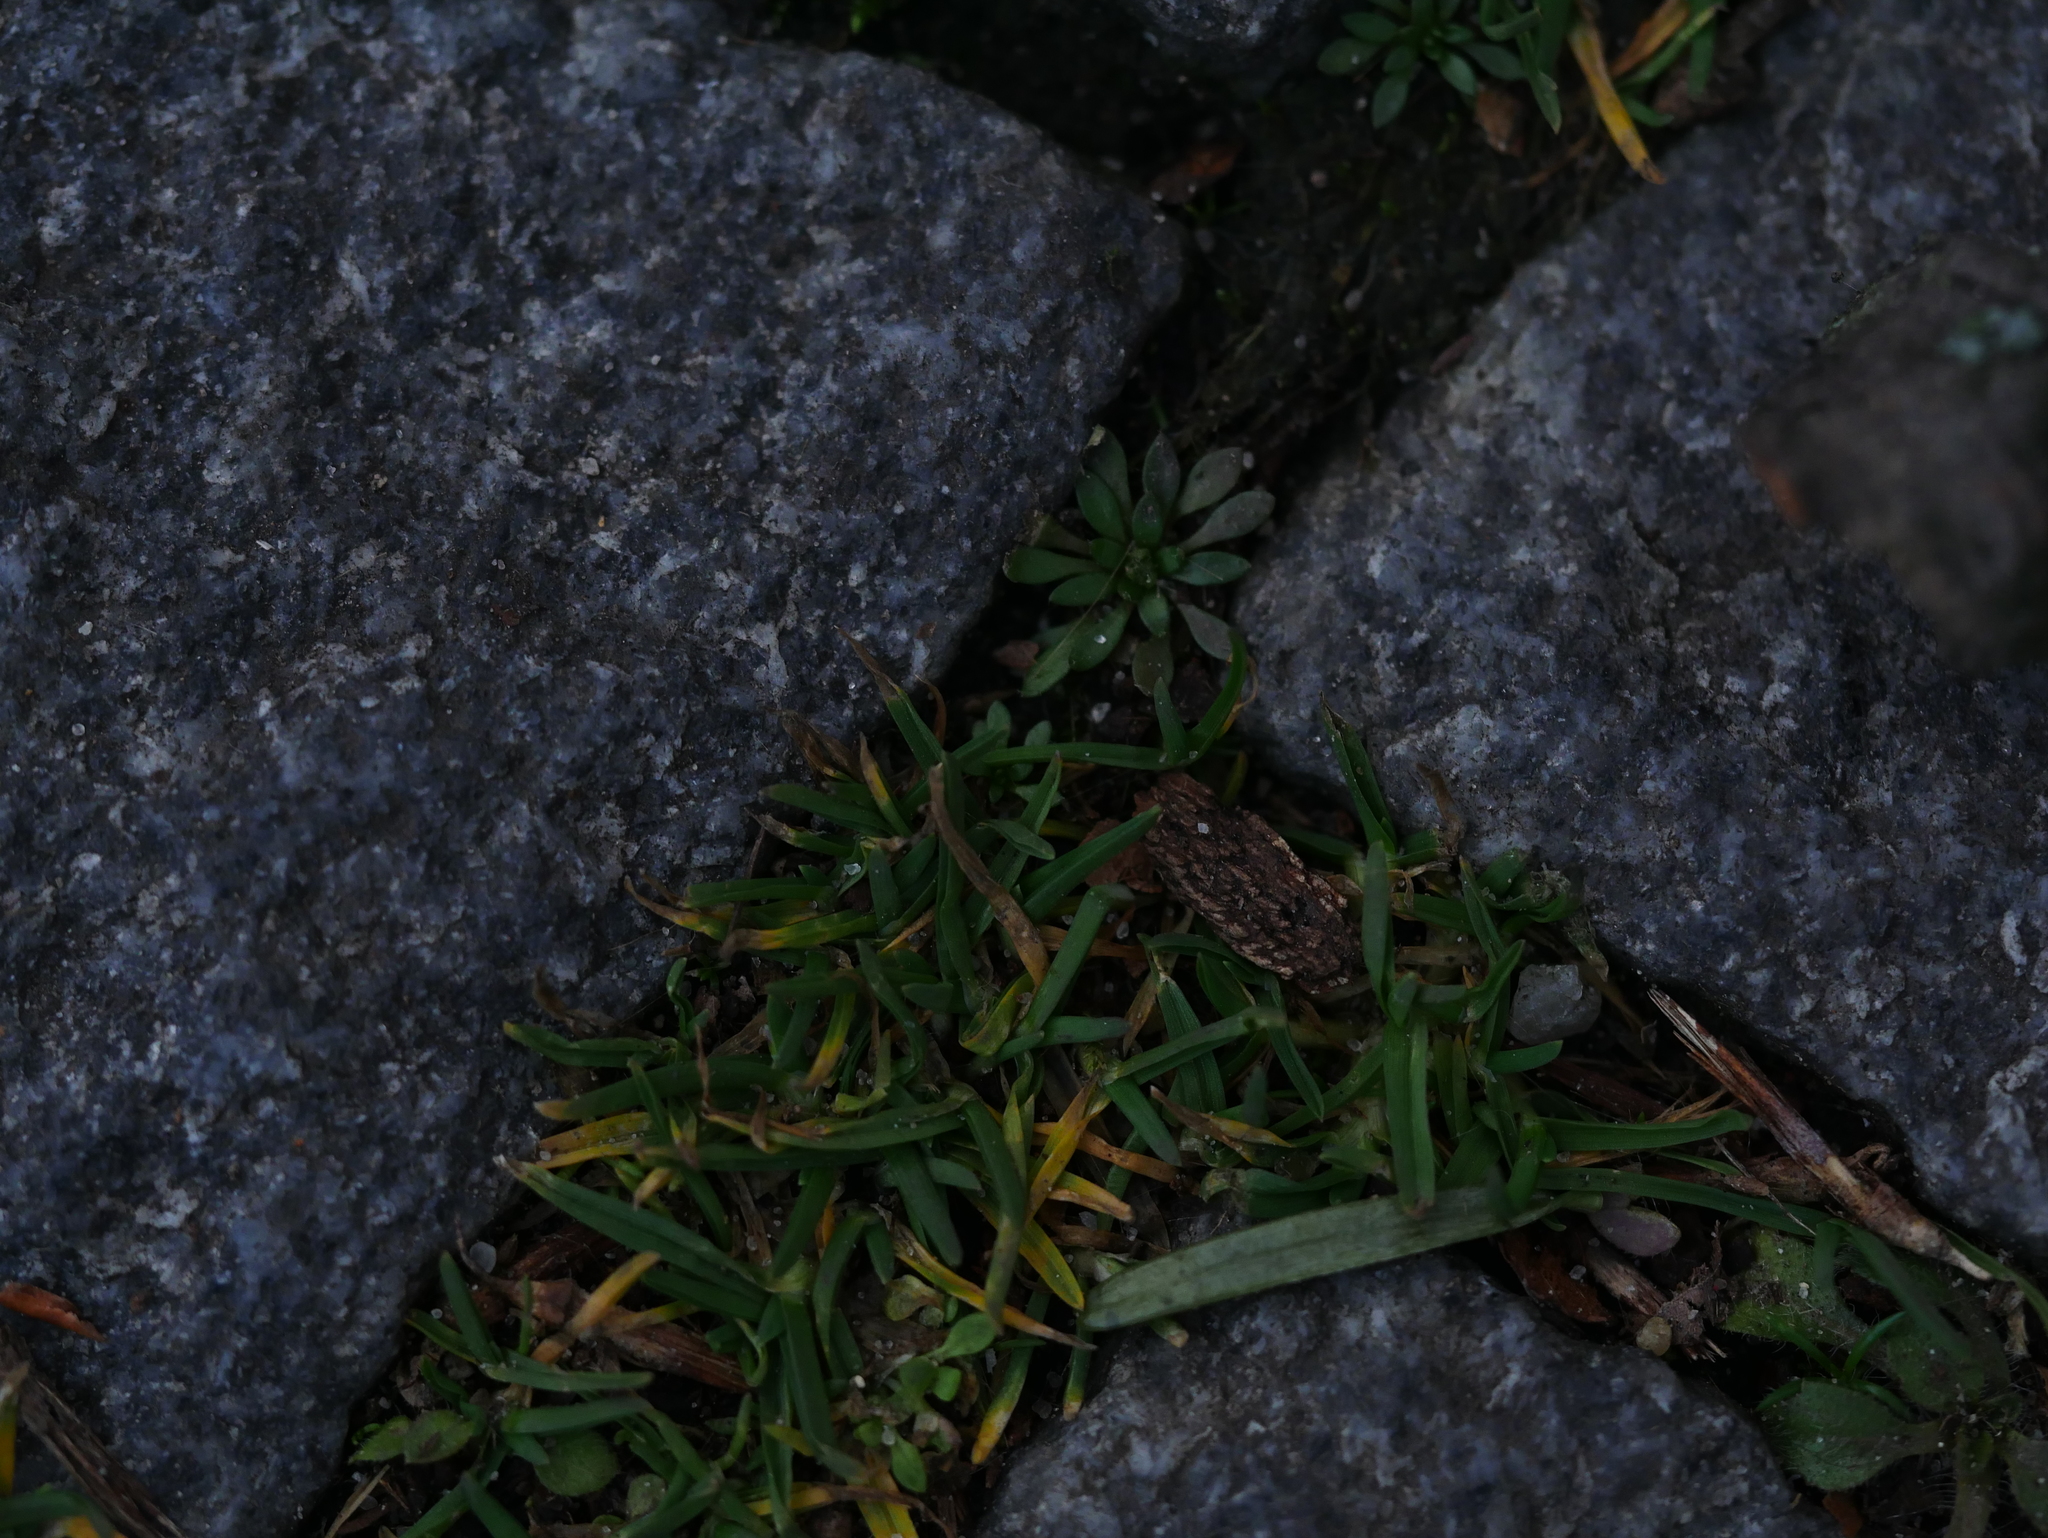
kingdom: Plantae
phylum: Tracheophyta
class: Magnoliopsida
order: Caryophyllales
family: Caryophyllaceae
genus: Sagina
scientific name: Sagina procumbens
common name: Procumbent pearlwort
